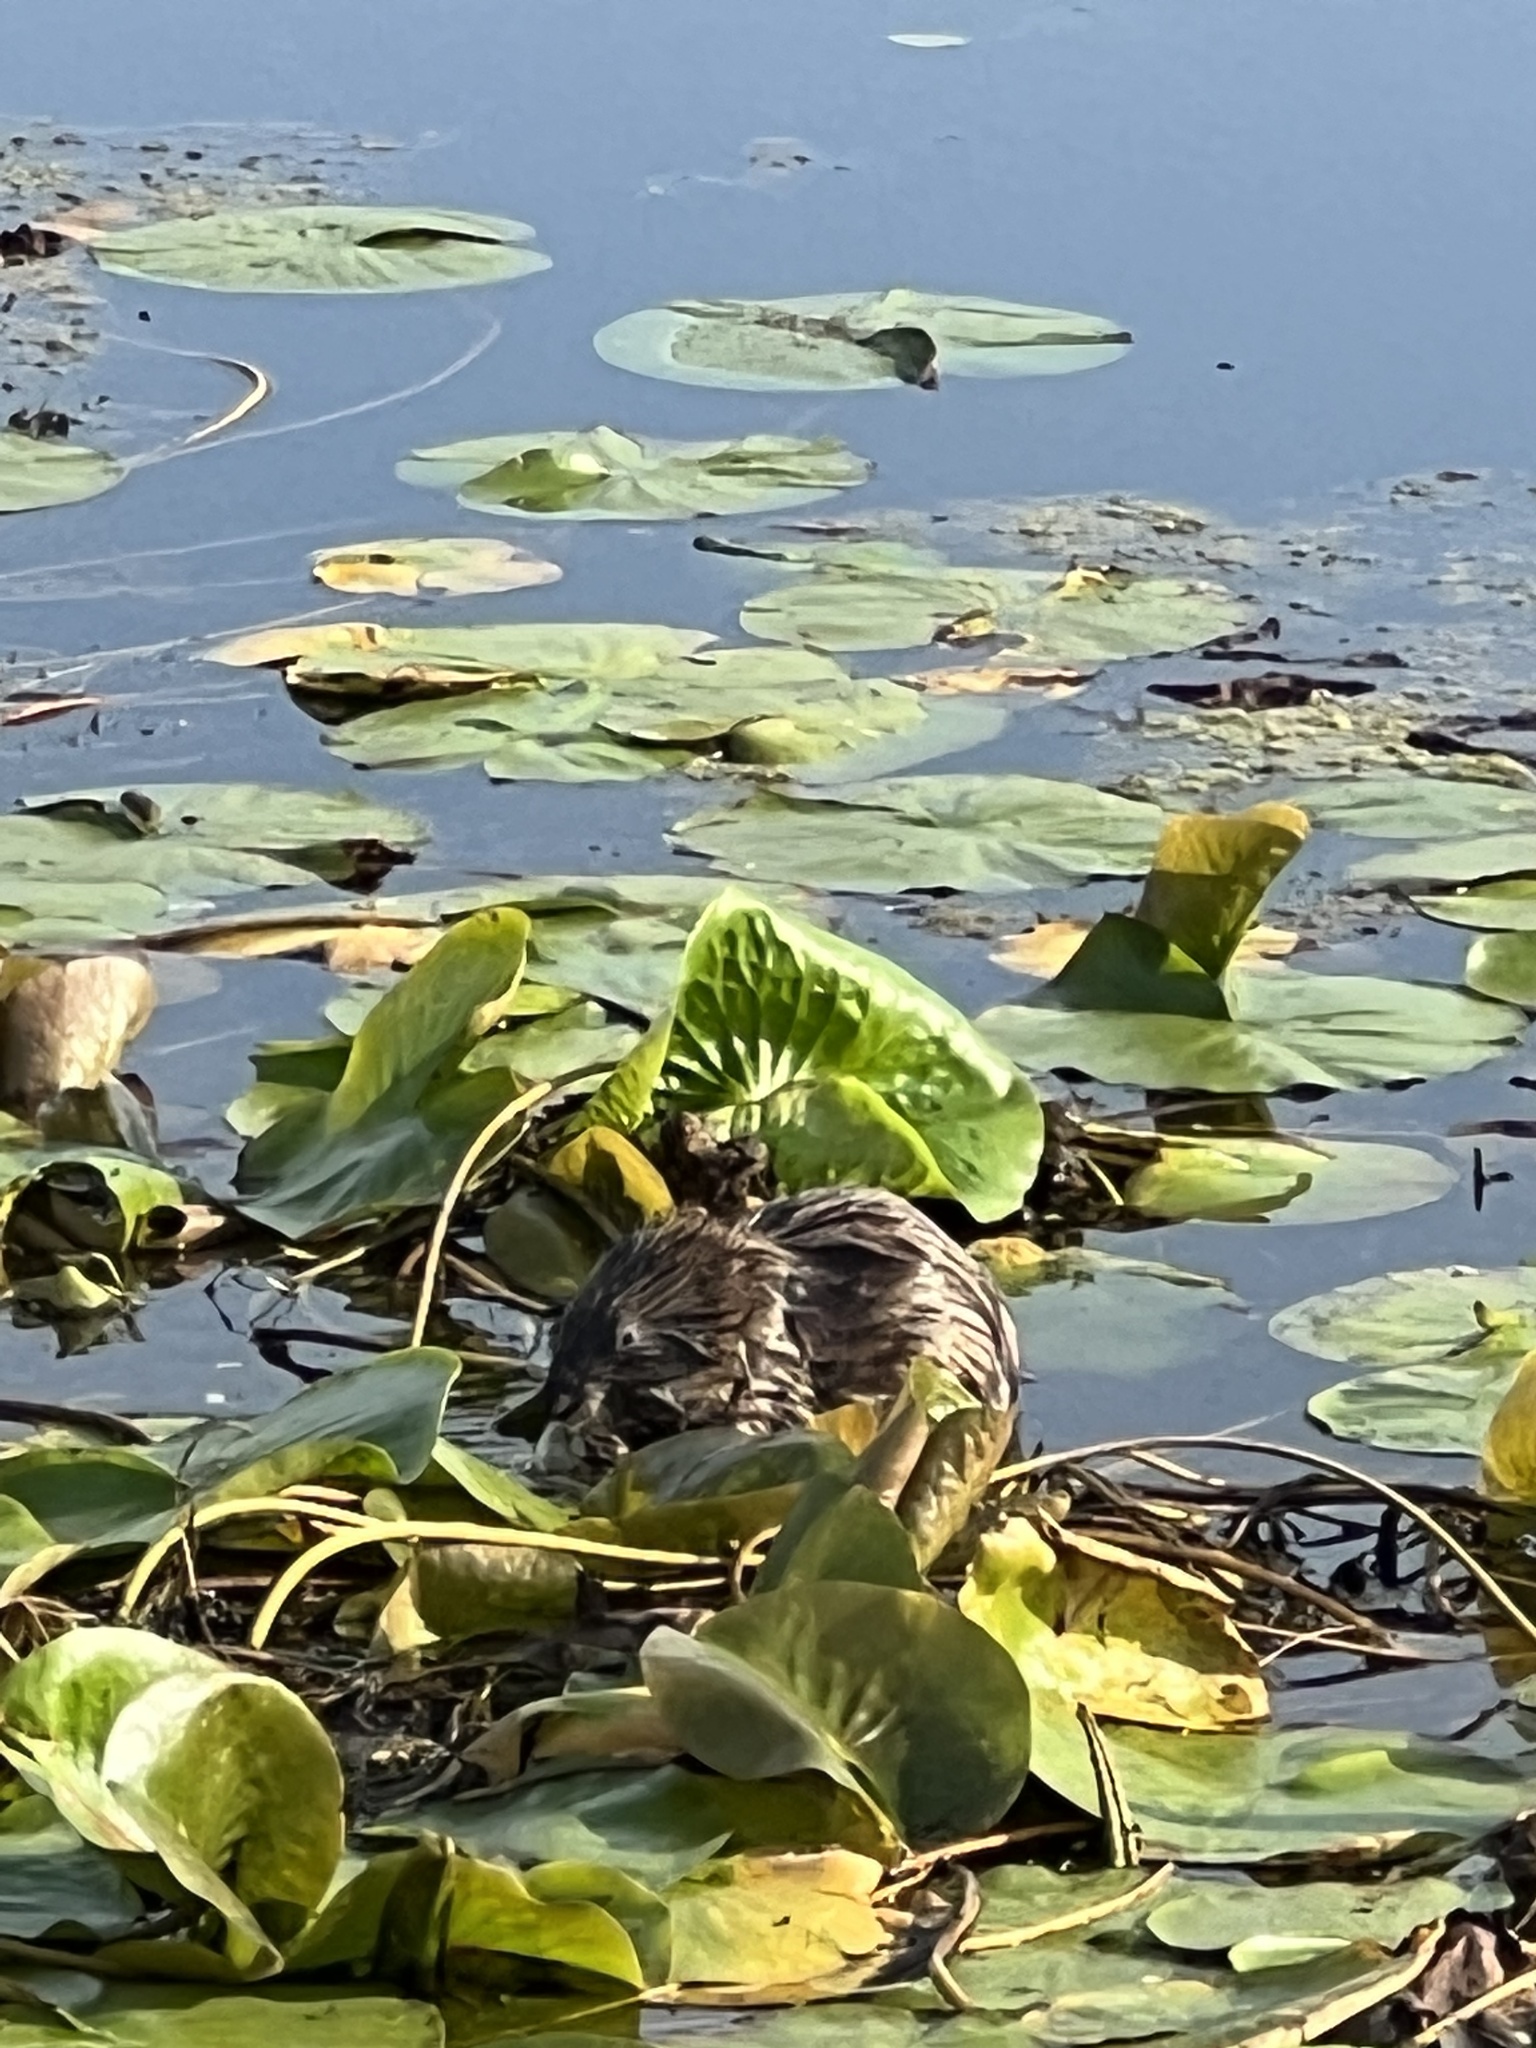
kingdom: Animalia
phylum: Chordata
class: Mammalia
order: Rodentia
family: Cricetidae
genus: Ondatra
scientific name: Ondatra zibethicus
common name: Muskrat
